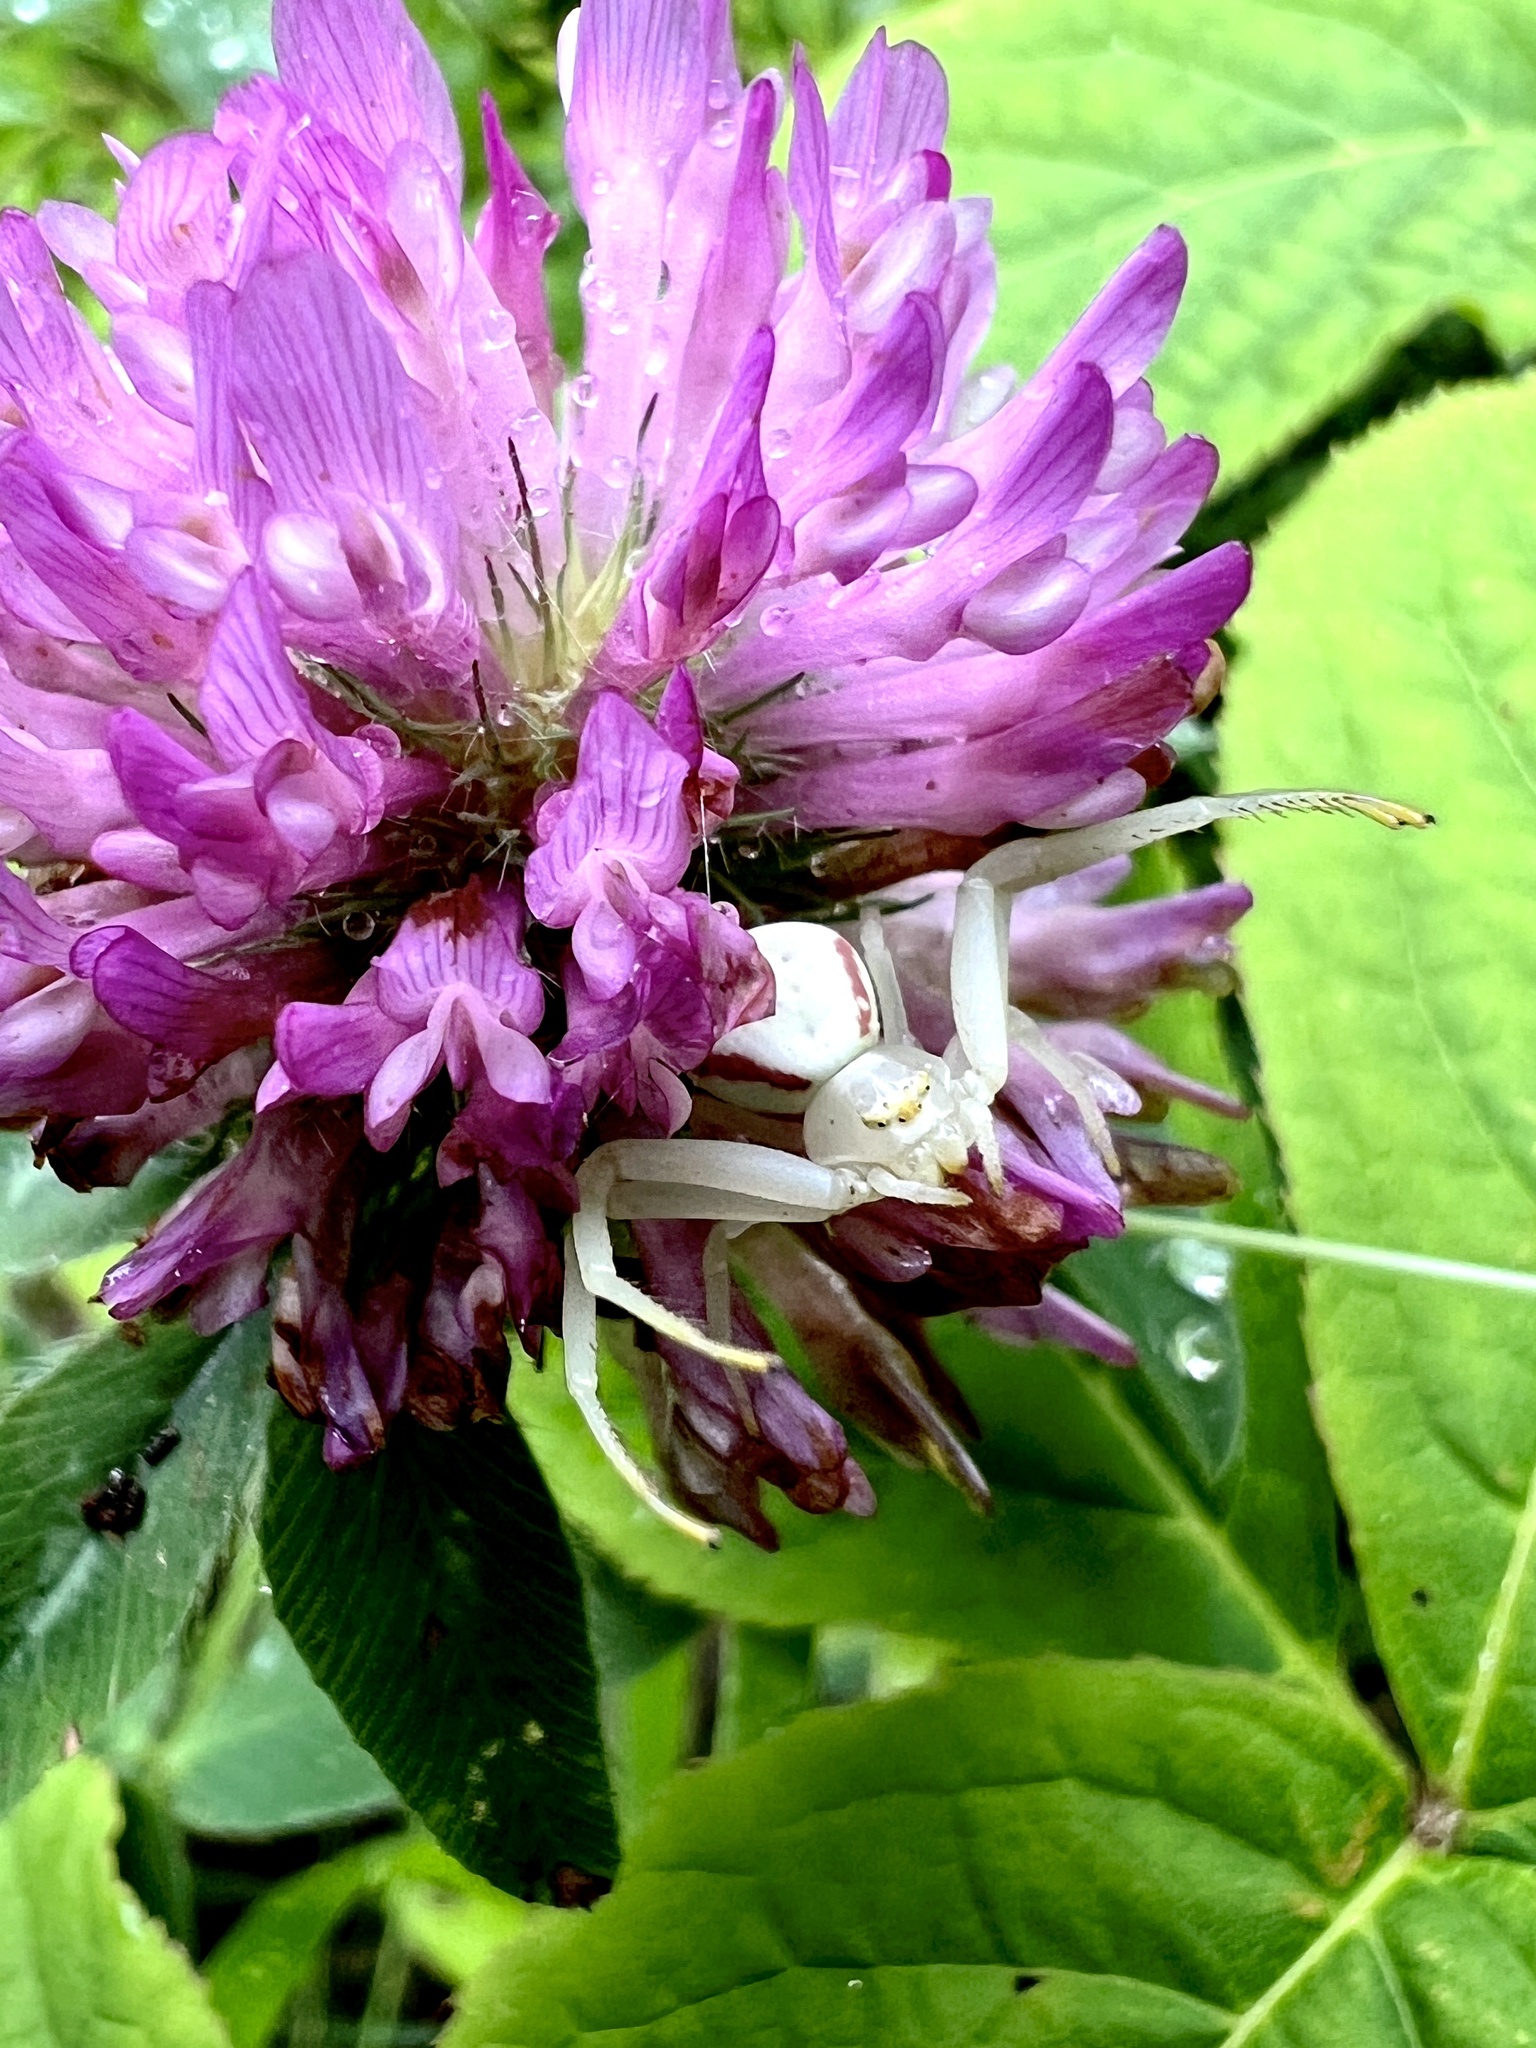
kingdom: Animalia
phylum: Arthropoda
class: Arachnida
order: Araneae
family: Thomisidae
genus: Misumena
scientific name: Misumena vatia
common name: Goldenrod crab spider
